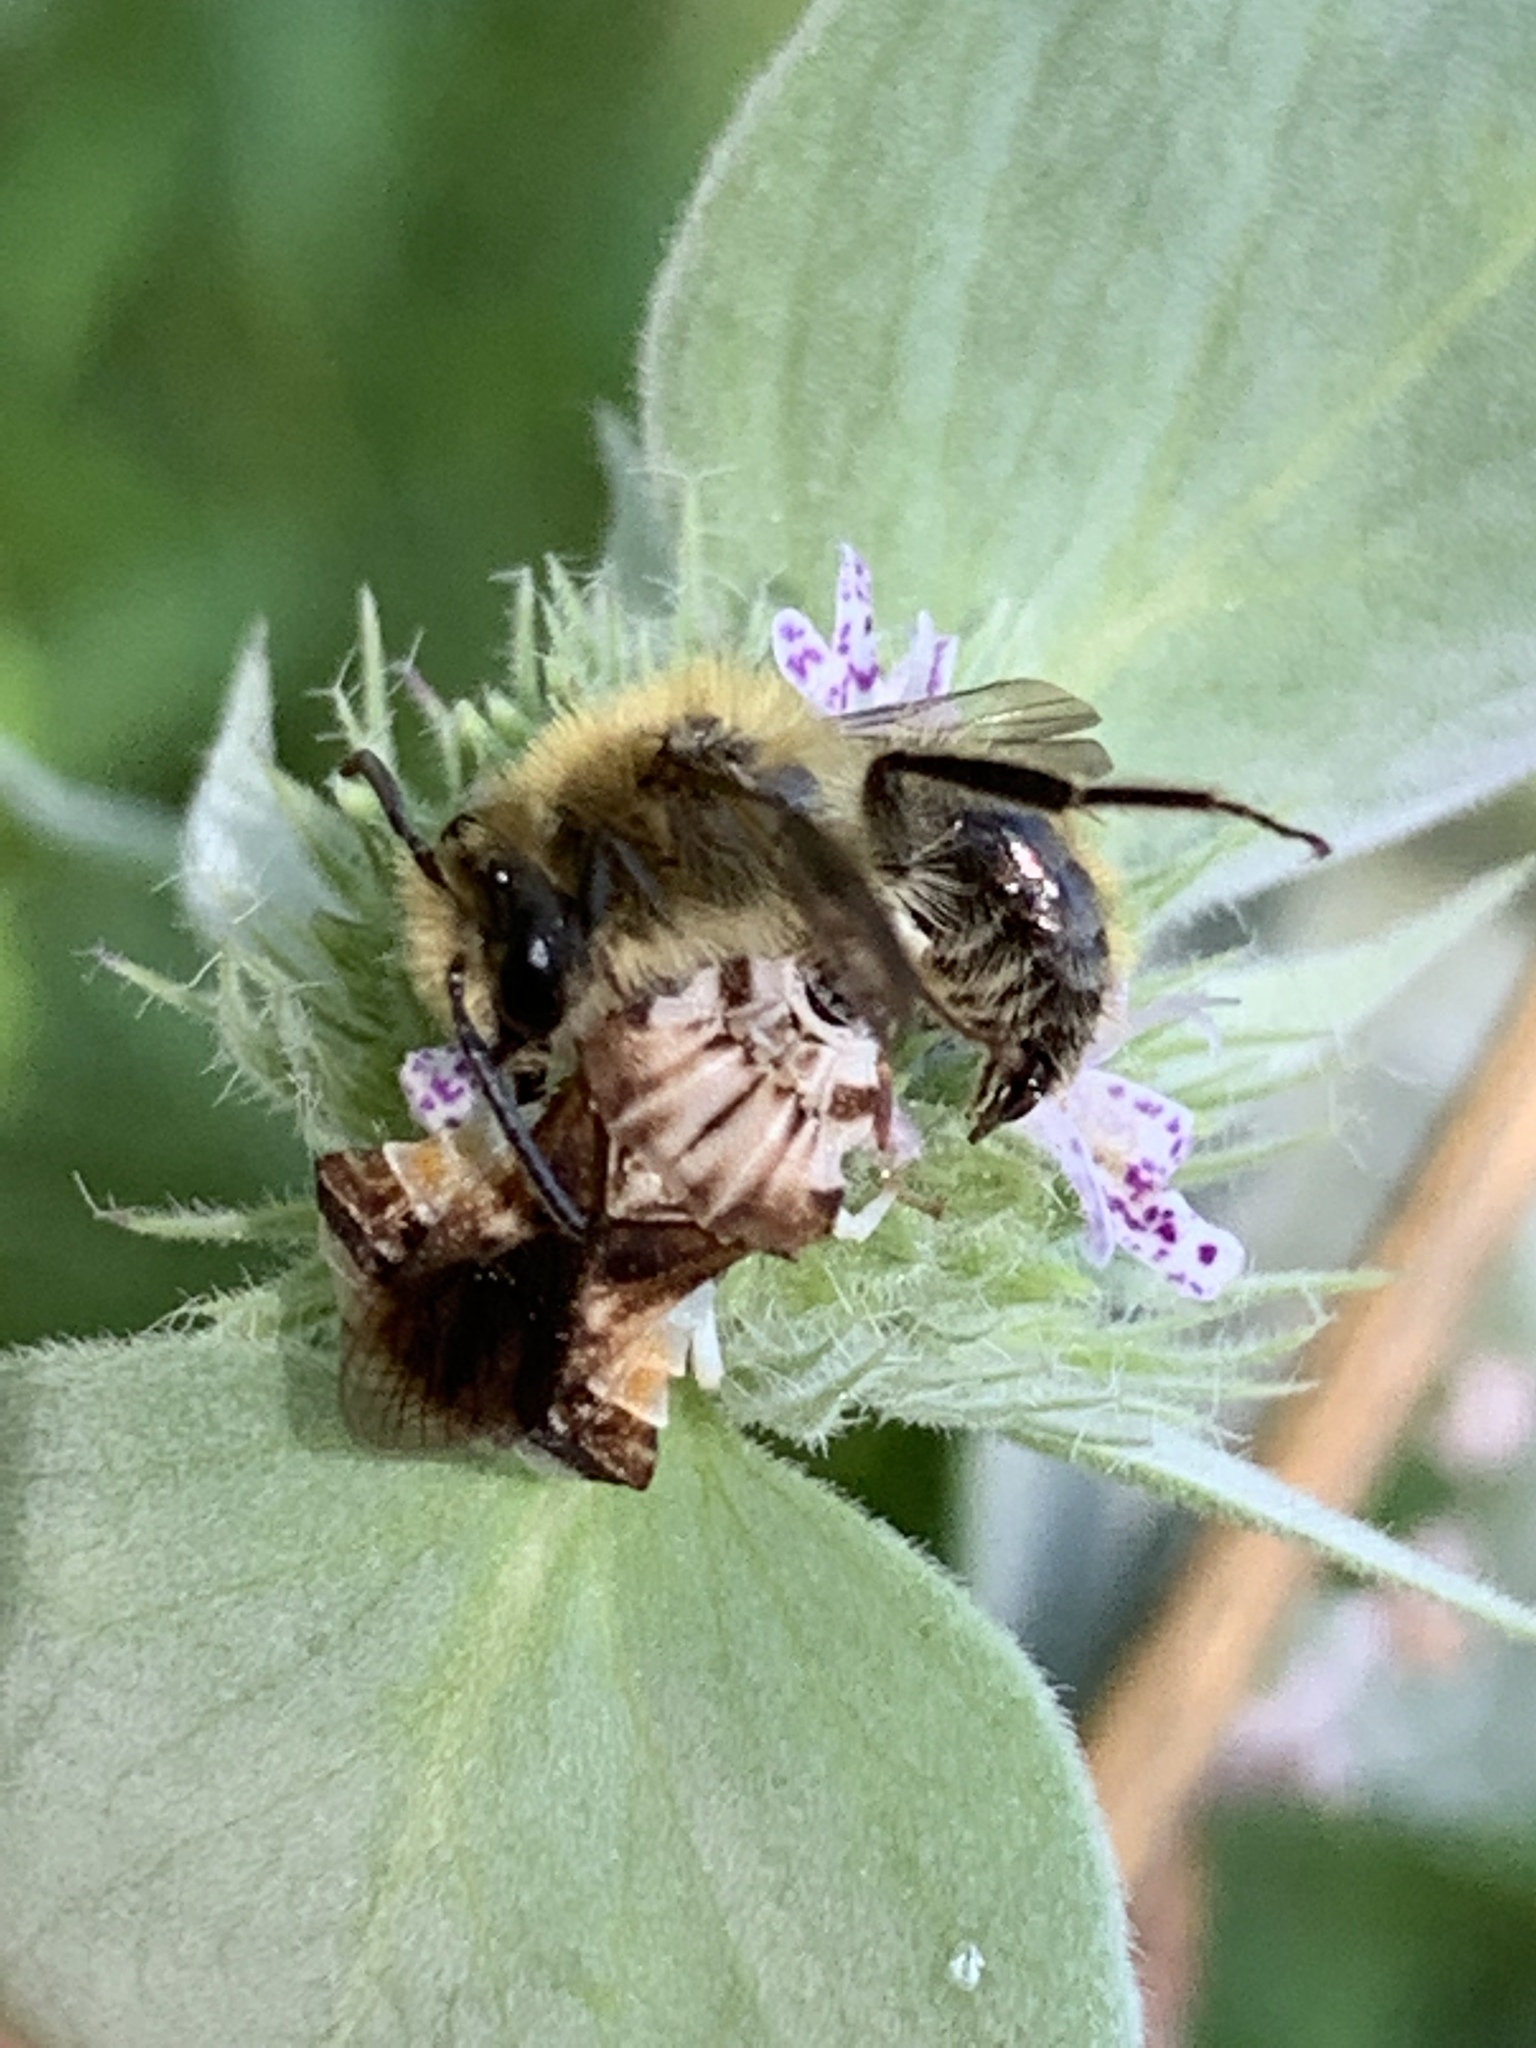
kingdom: Animalia
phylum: Arthropoda
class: Insecta
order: Hymenoptera
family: Andrenidae
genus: Andrena
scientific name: Andrena hirticincta
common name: Hairy-banded mining bee
